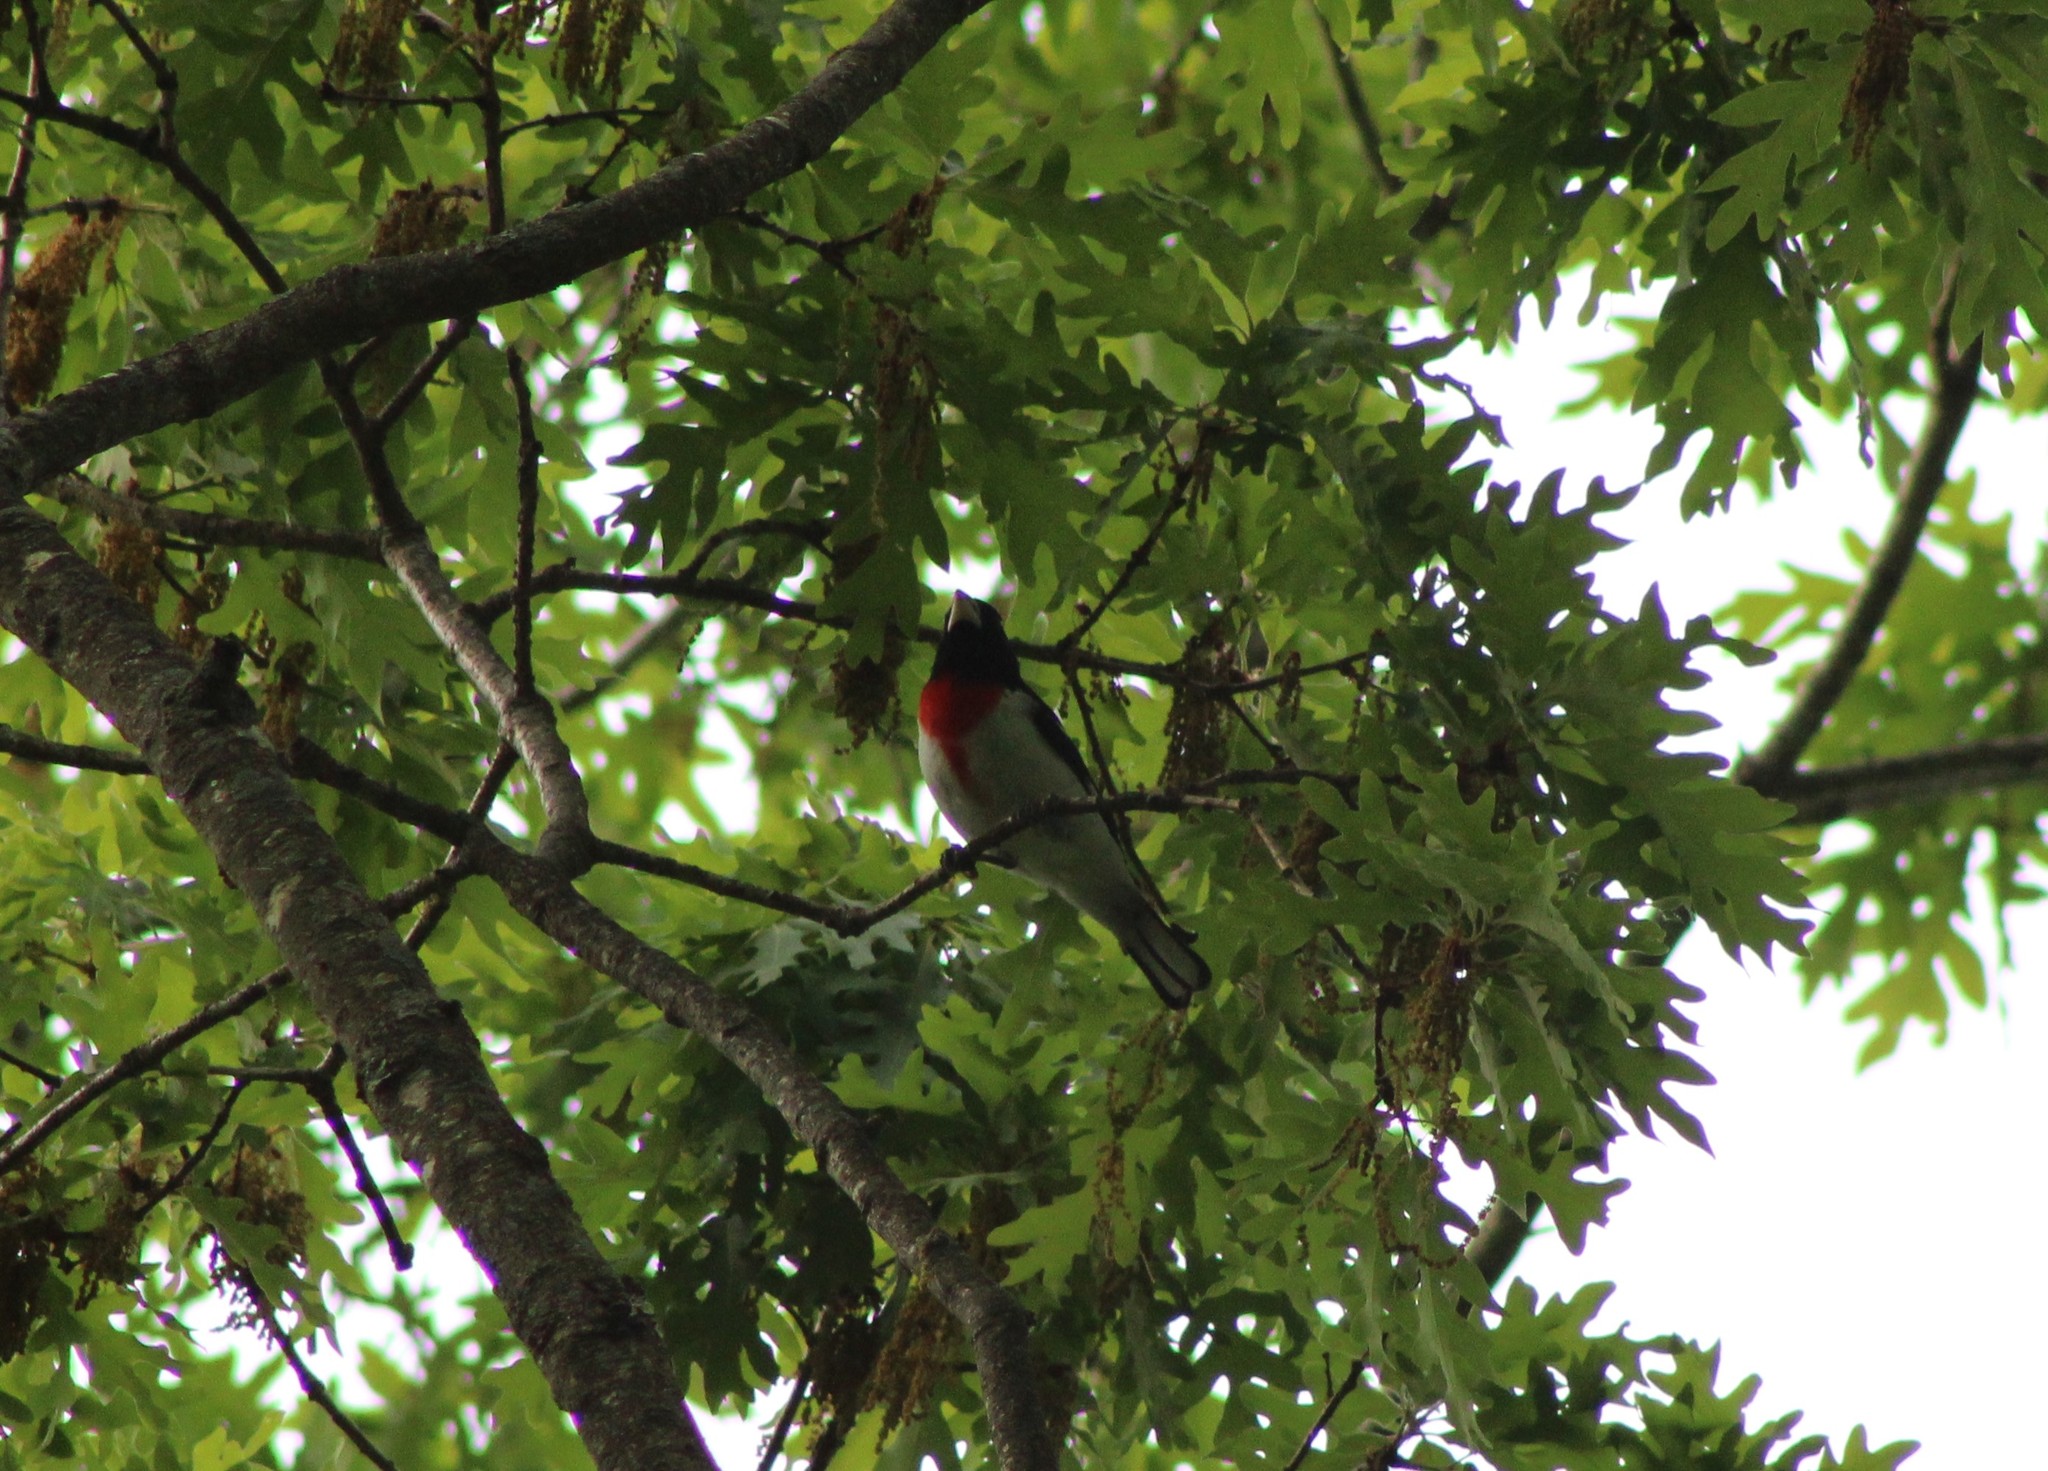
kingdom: Animalia
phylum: Chordata
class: Aves
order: Passeriformes
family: Cardinalidae
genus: Pheucticus
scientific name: Pheucticus ludovicianus
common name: Rose-breasted grosbeak
